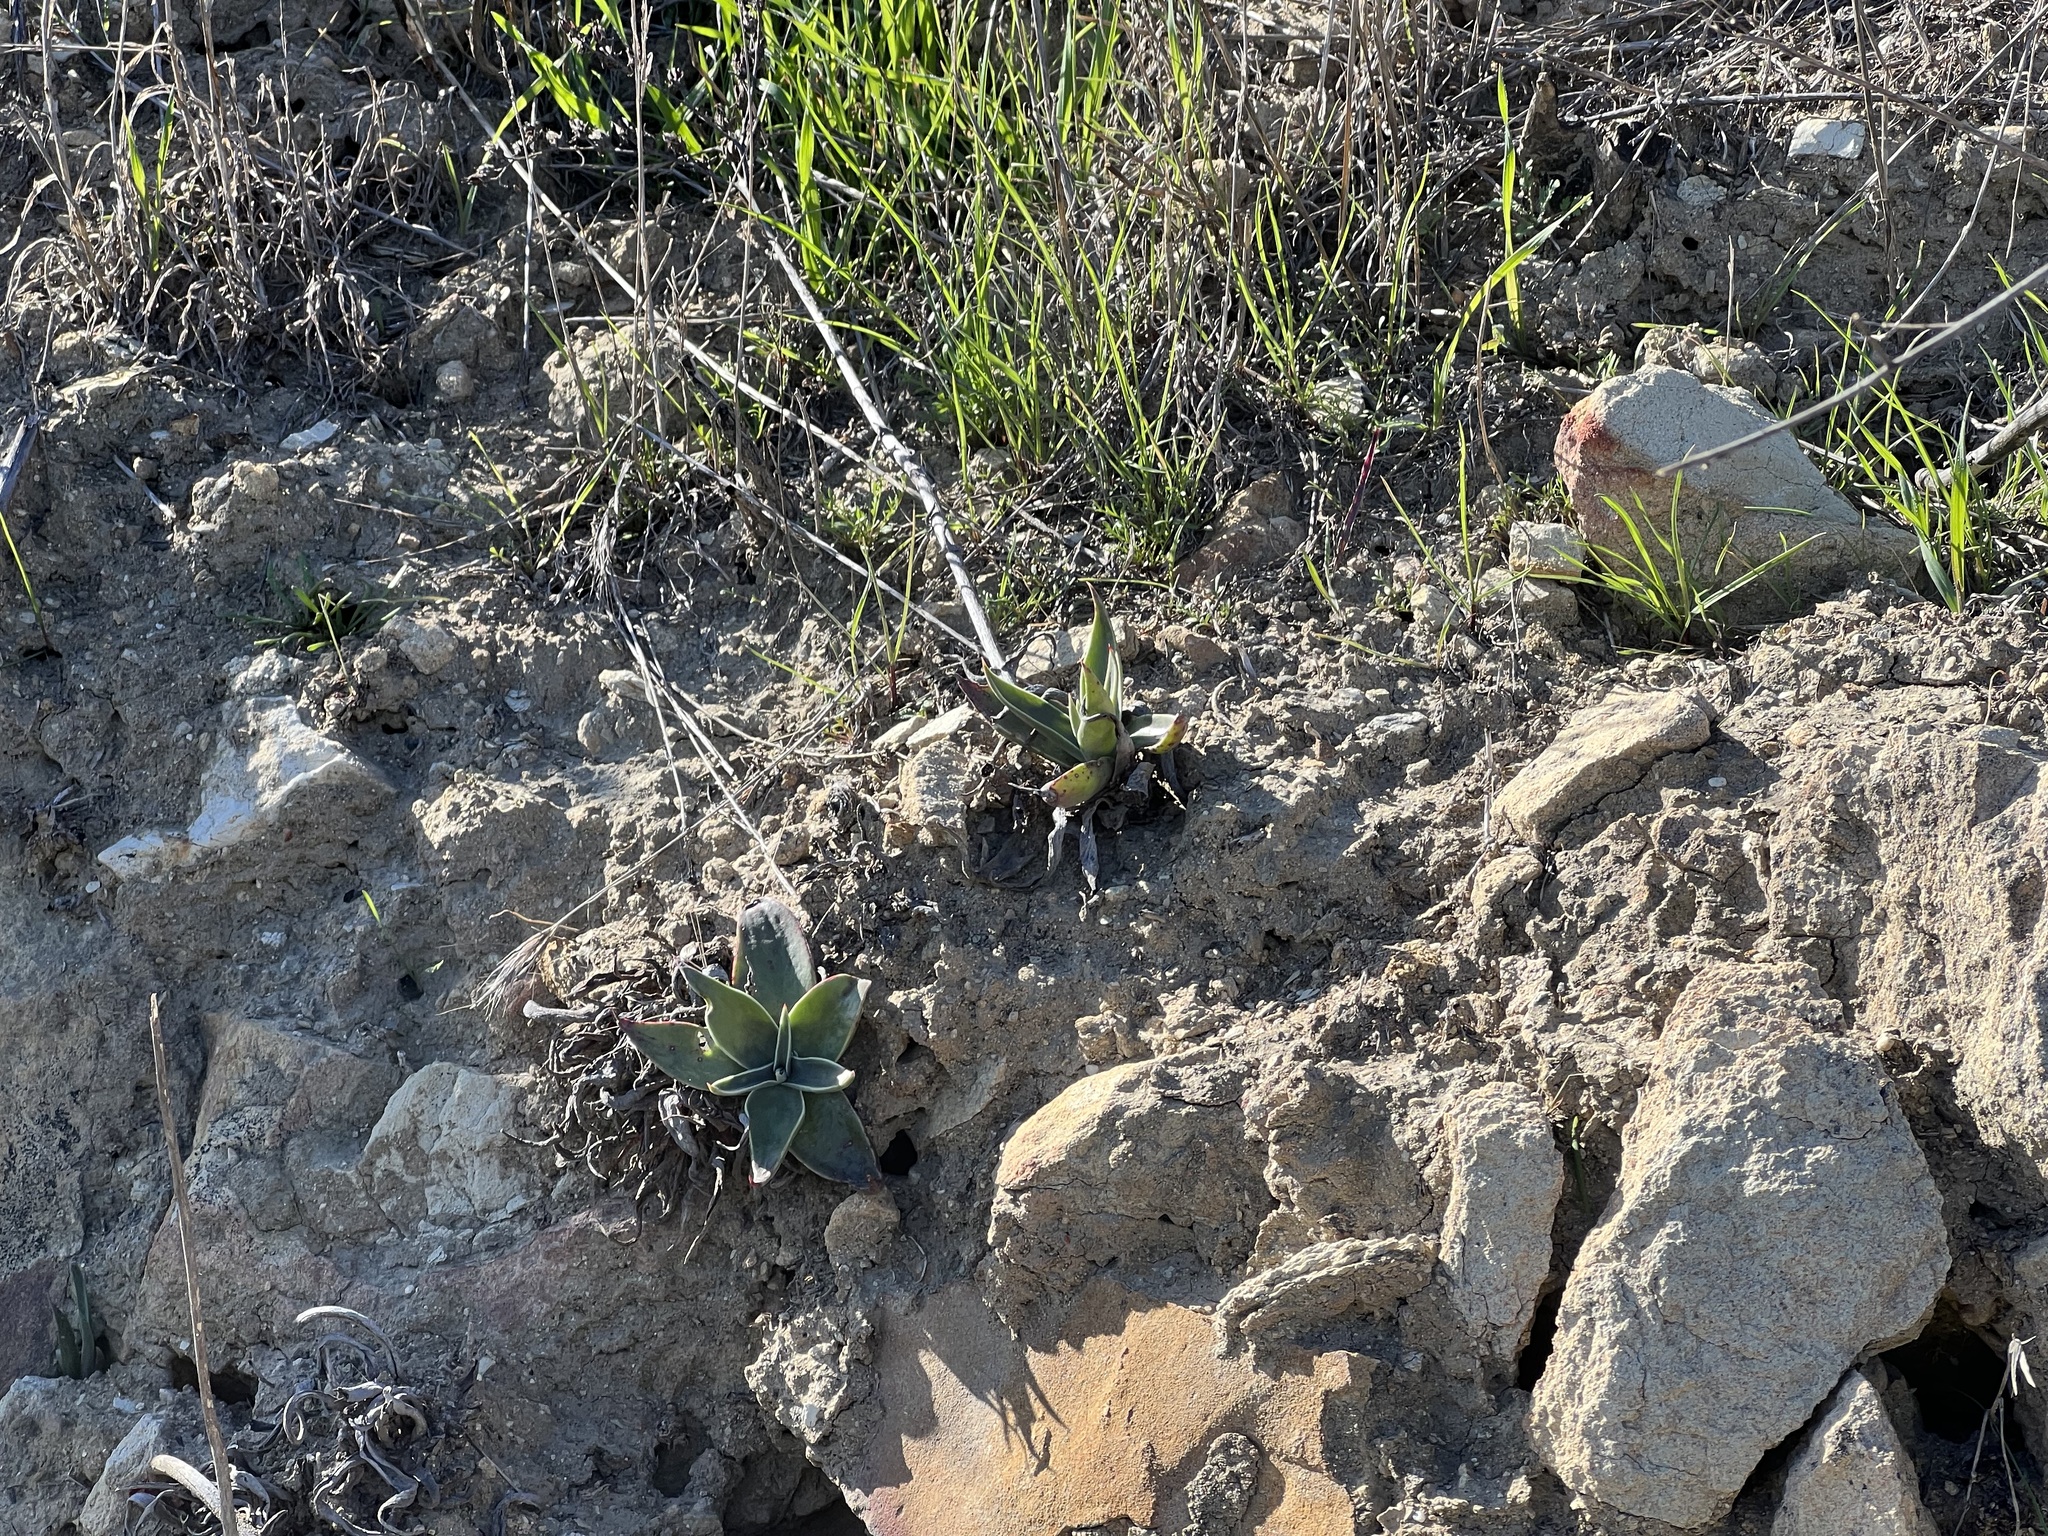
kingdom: Plantae
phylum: Tracheophyta
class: Magnoliopsida
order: Saxifragales
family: Crassulaceae
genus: Dudleya
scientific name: Dudleya lanceolata
